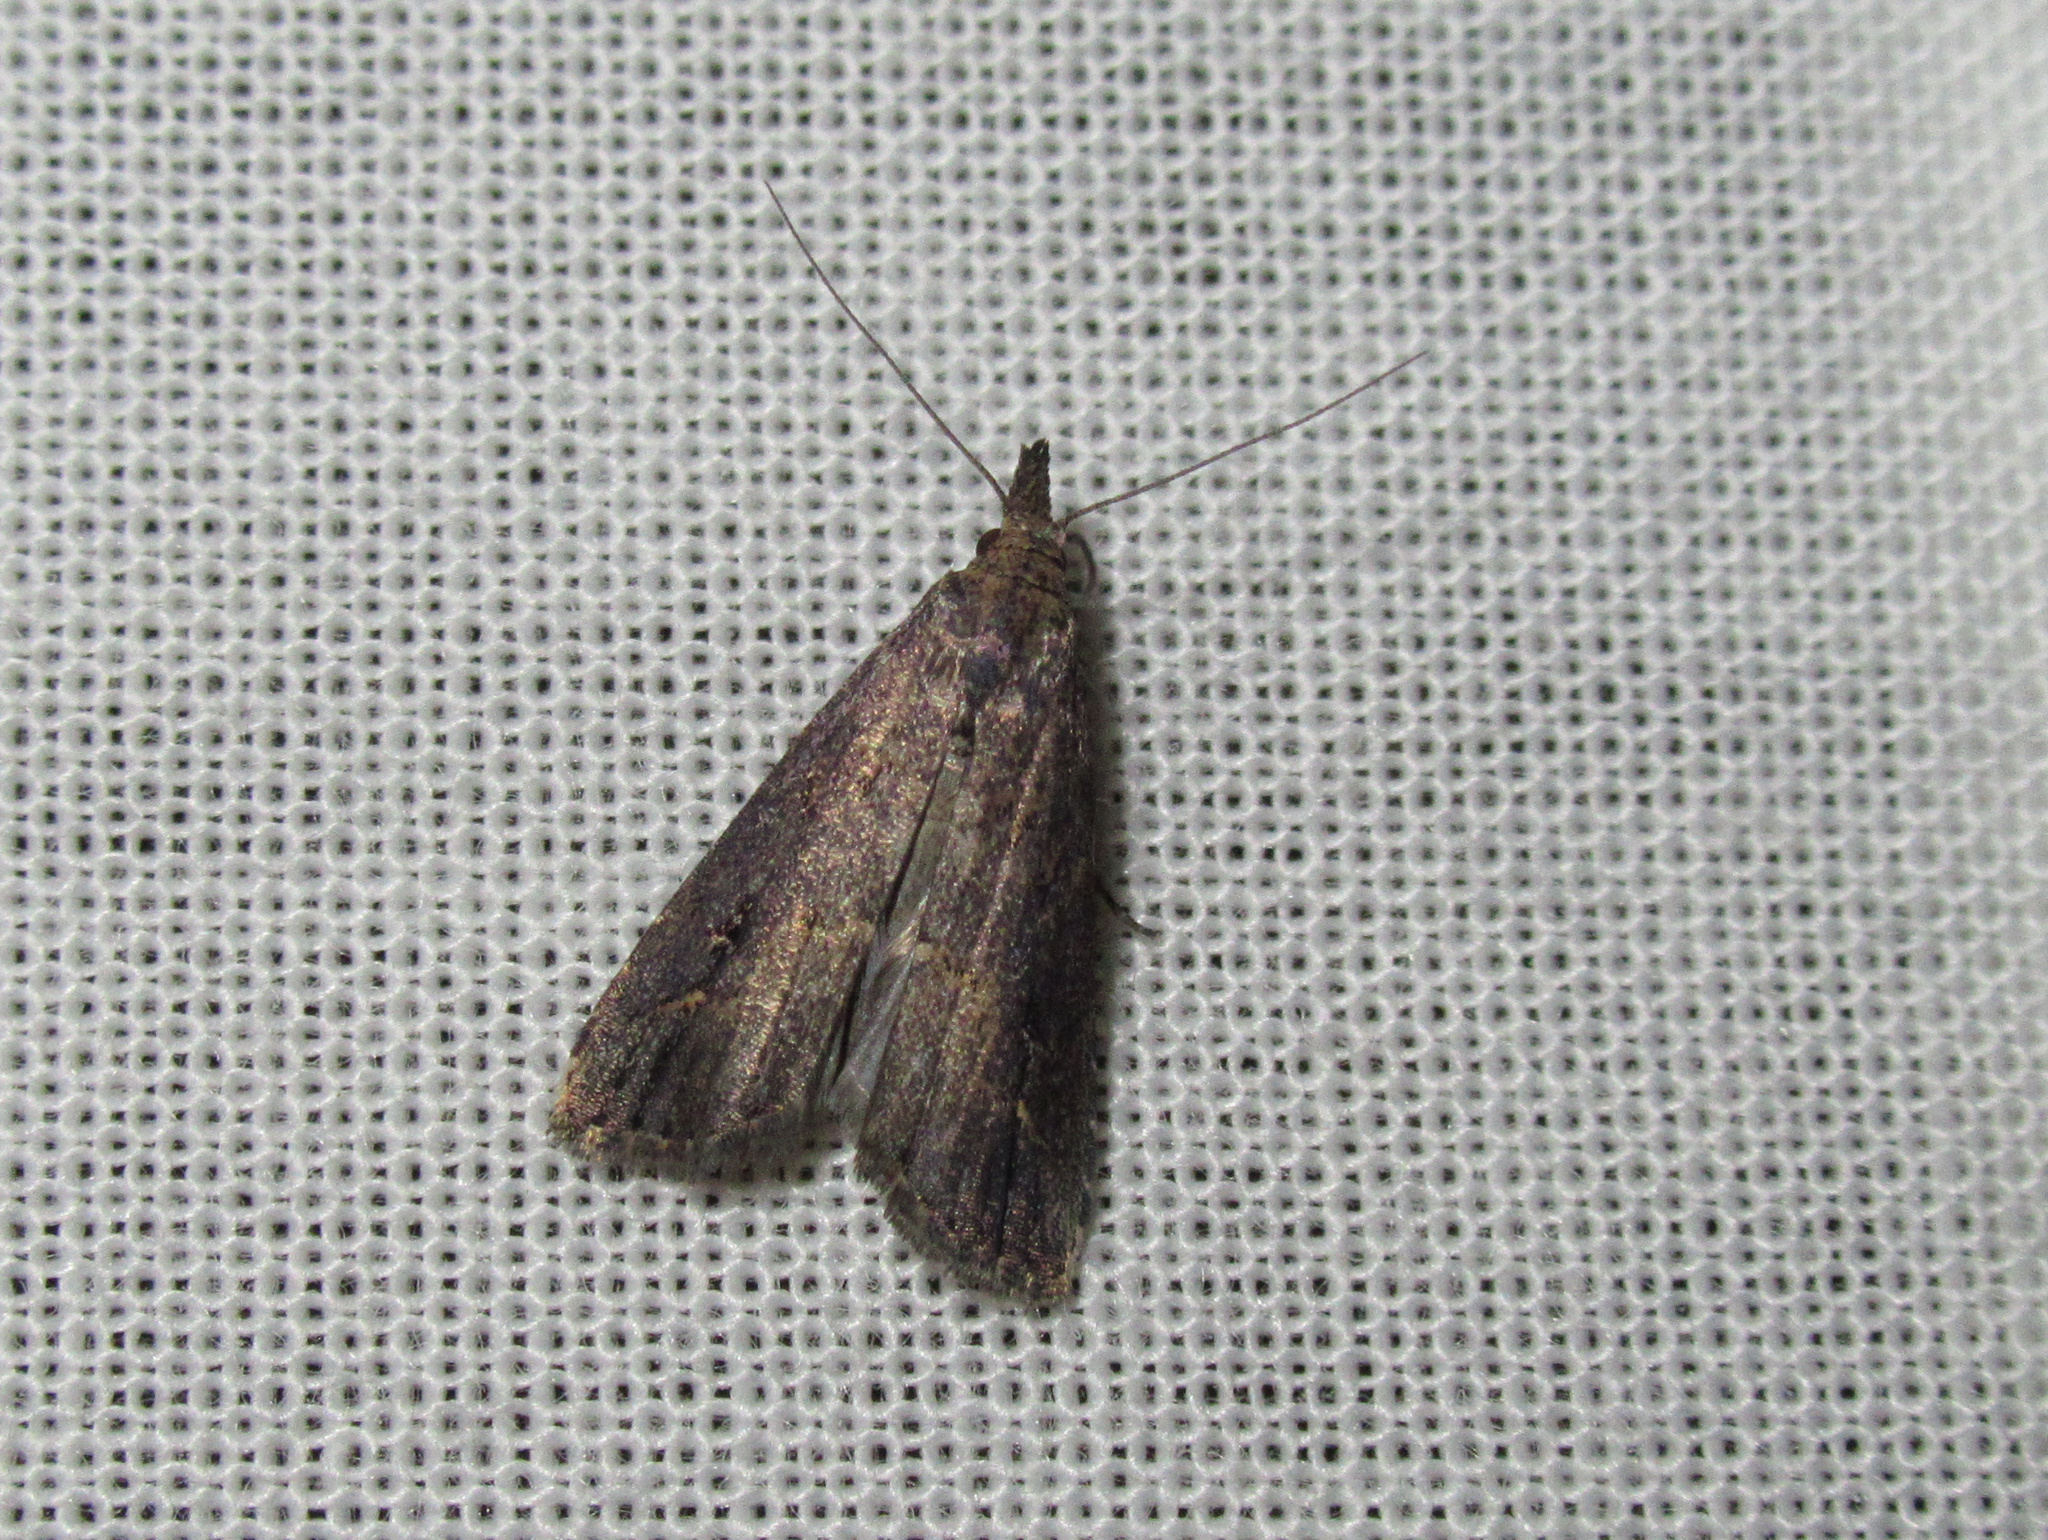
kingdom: Animalia
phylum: Arthropoda
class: Insecta
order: Lepidoptera
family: Erebidae
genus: Schrankia
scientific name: Schrankia costaestrigalis
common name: Pinion-streaked snout
